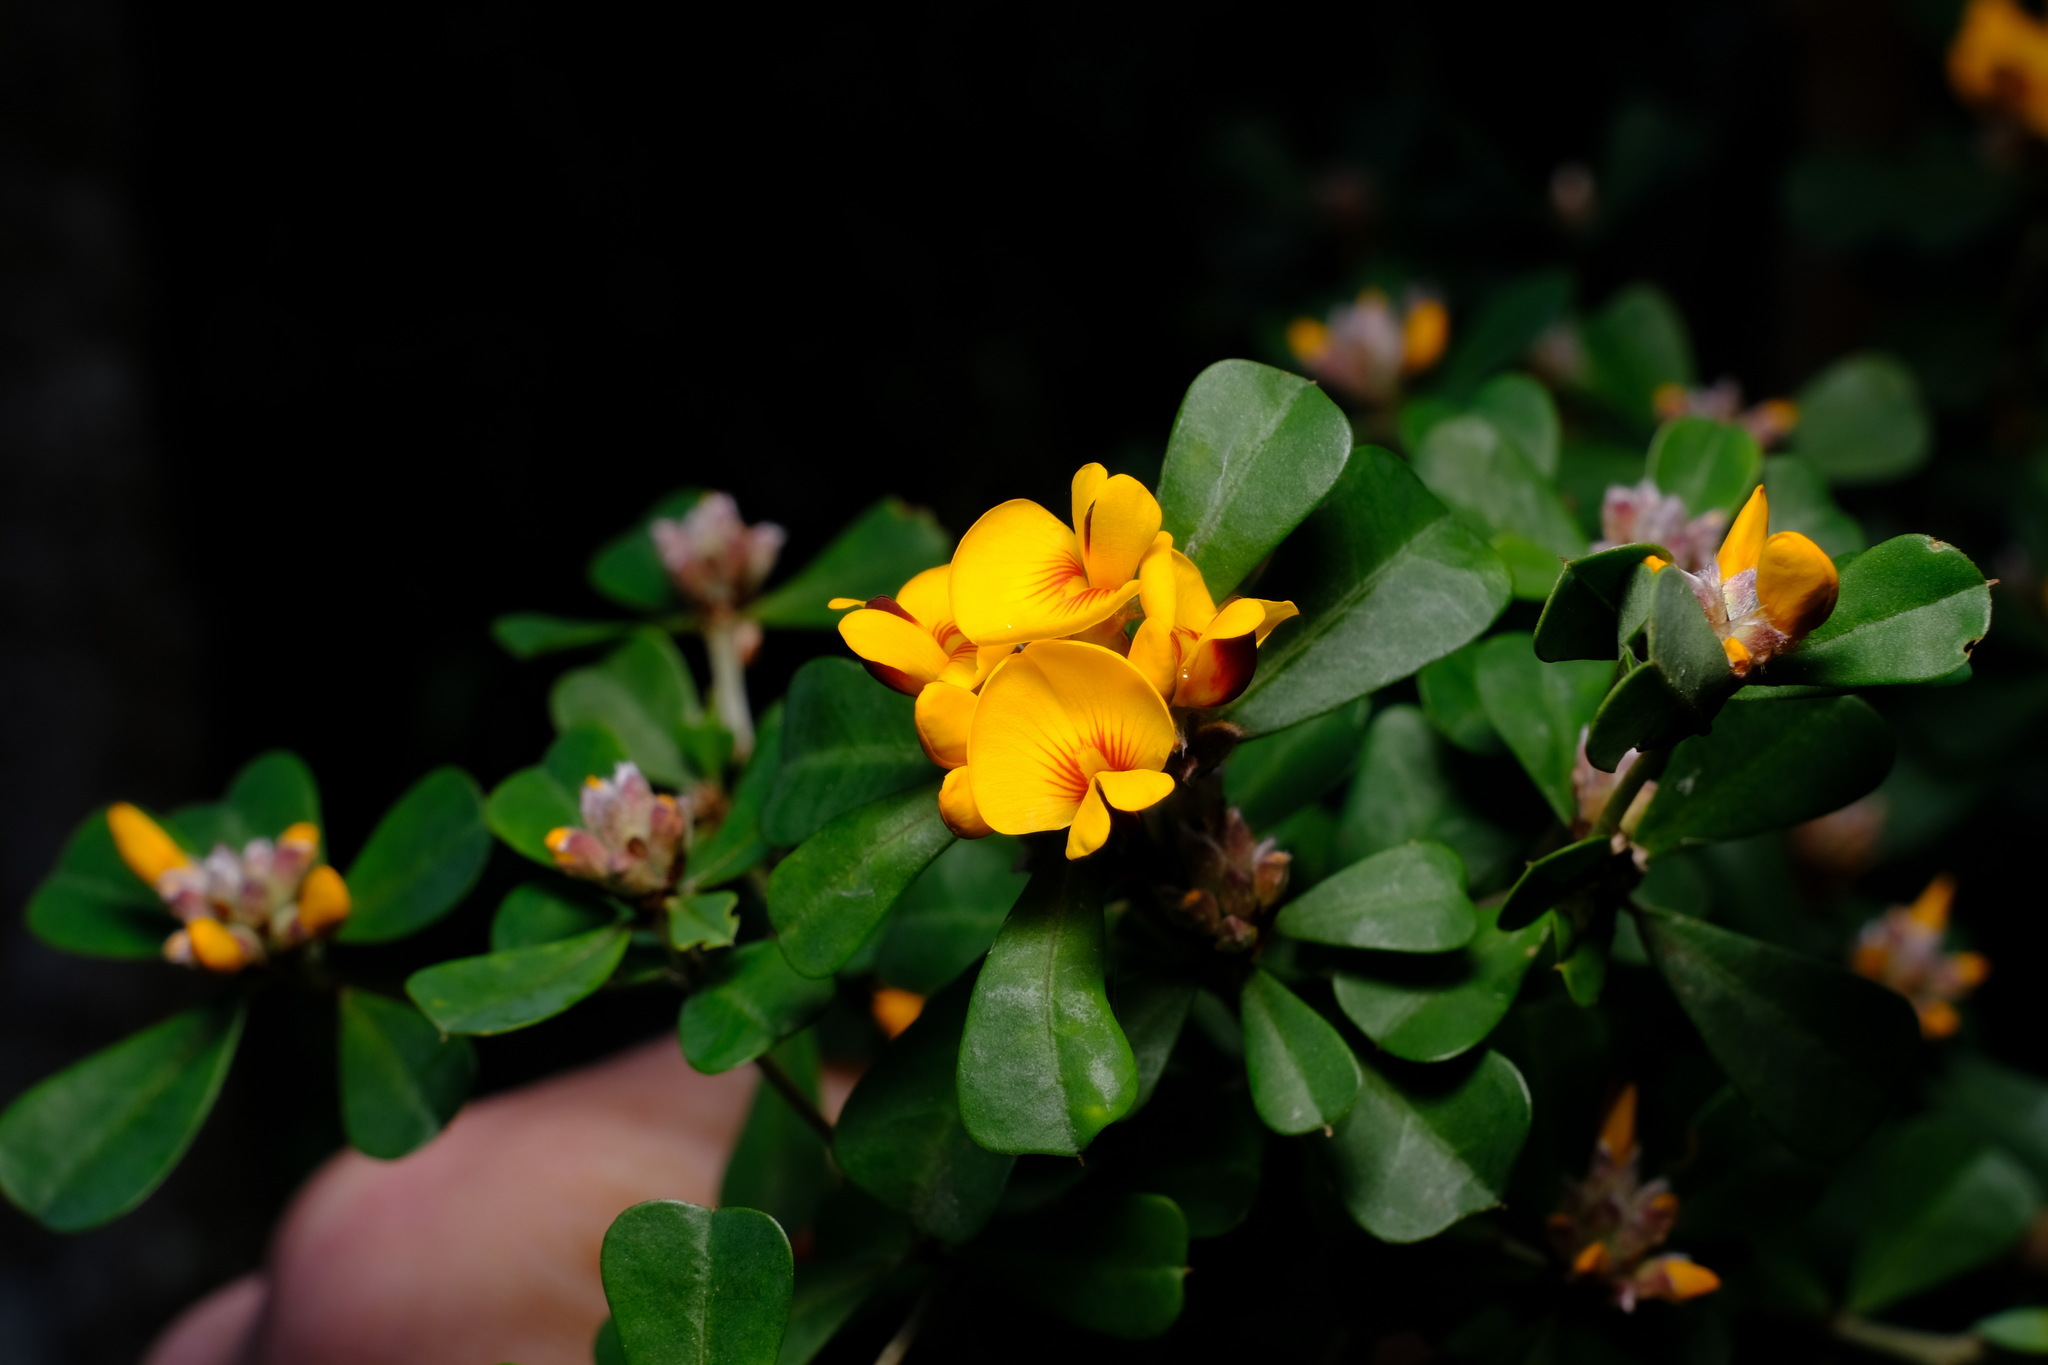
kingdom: Plantae
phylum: Tracheophyta
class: Magnoliopsida
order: Fabales
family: Fabaceae
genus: Pultenaea
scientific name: Pultenaea daphnoides
